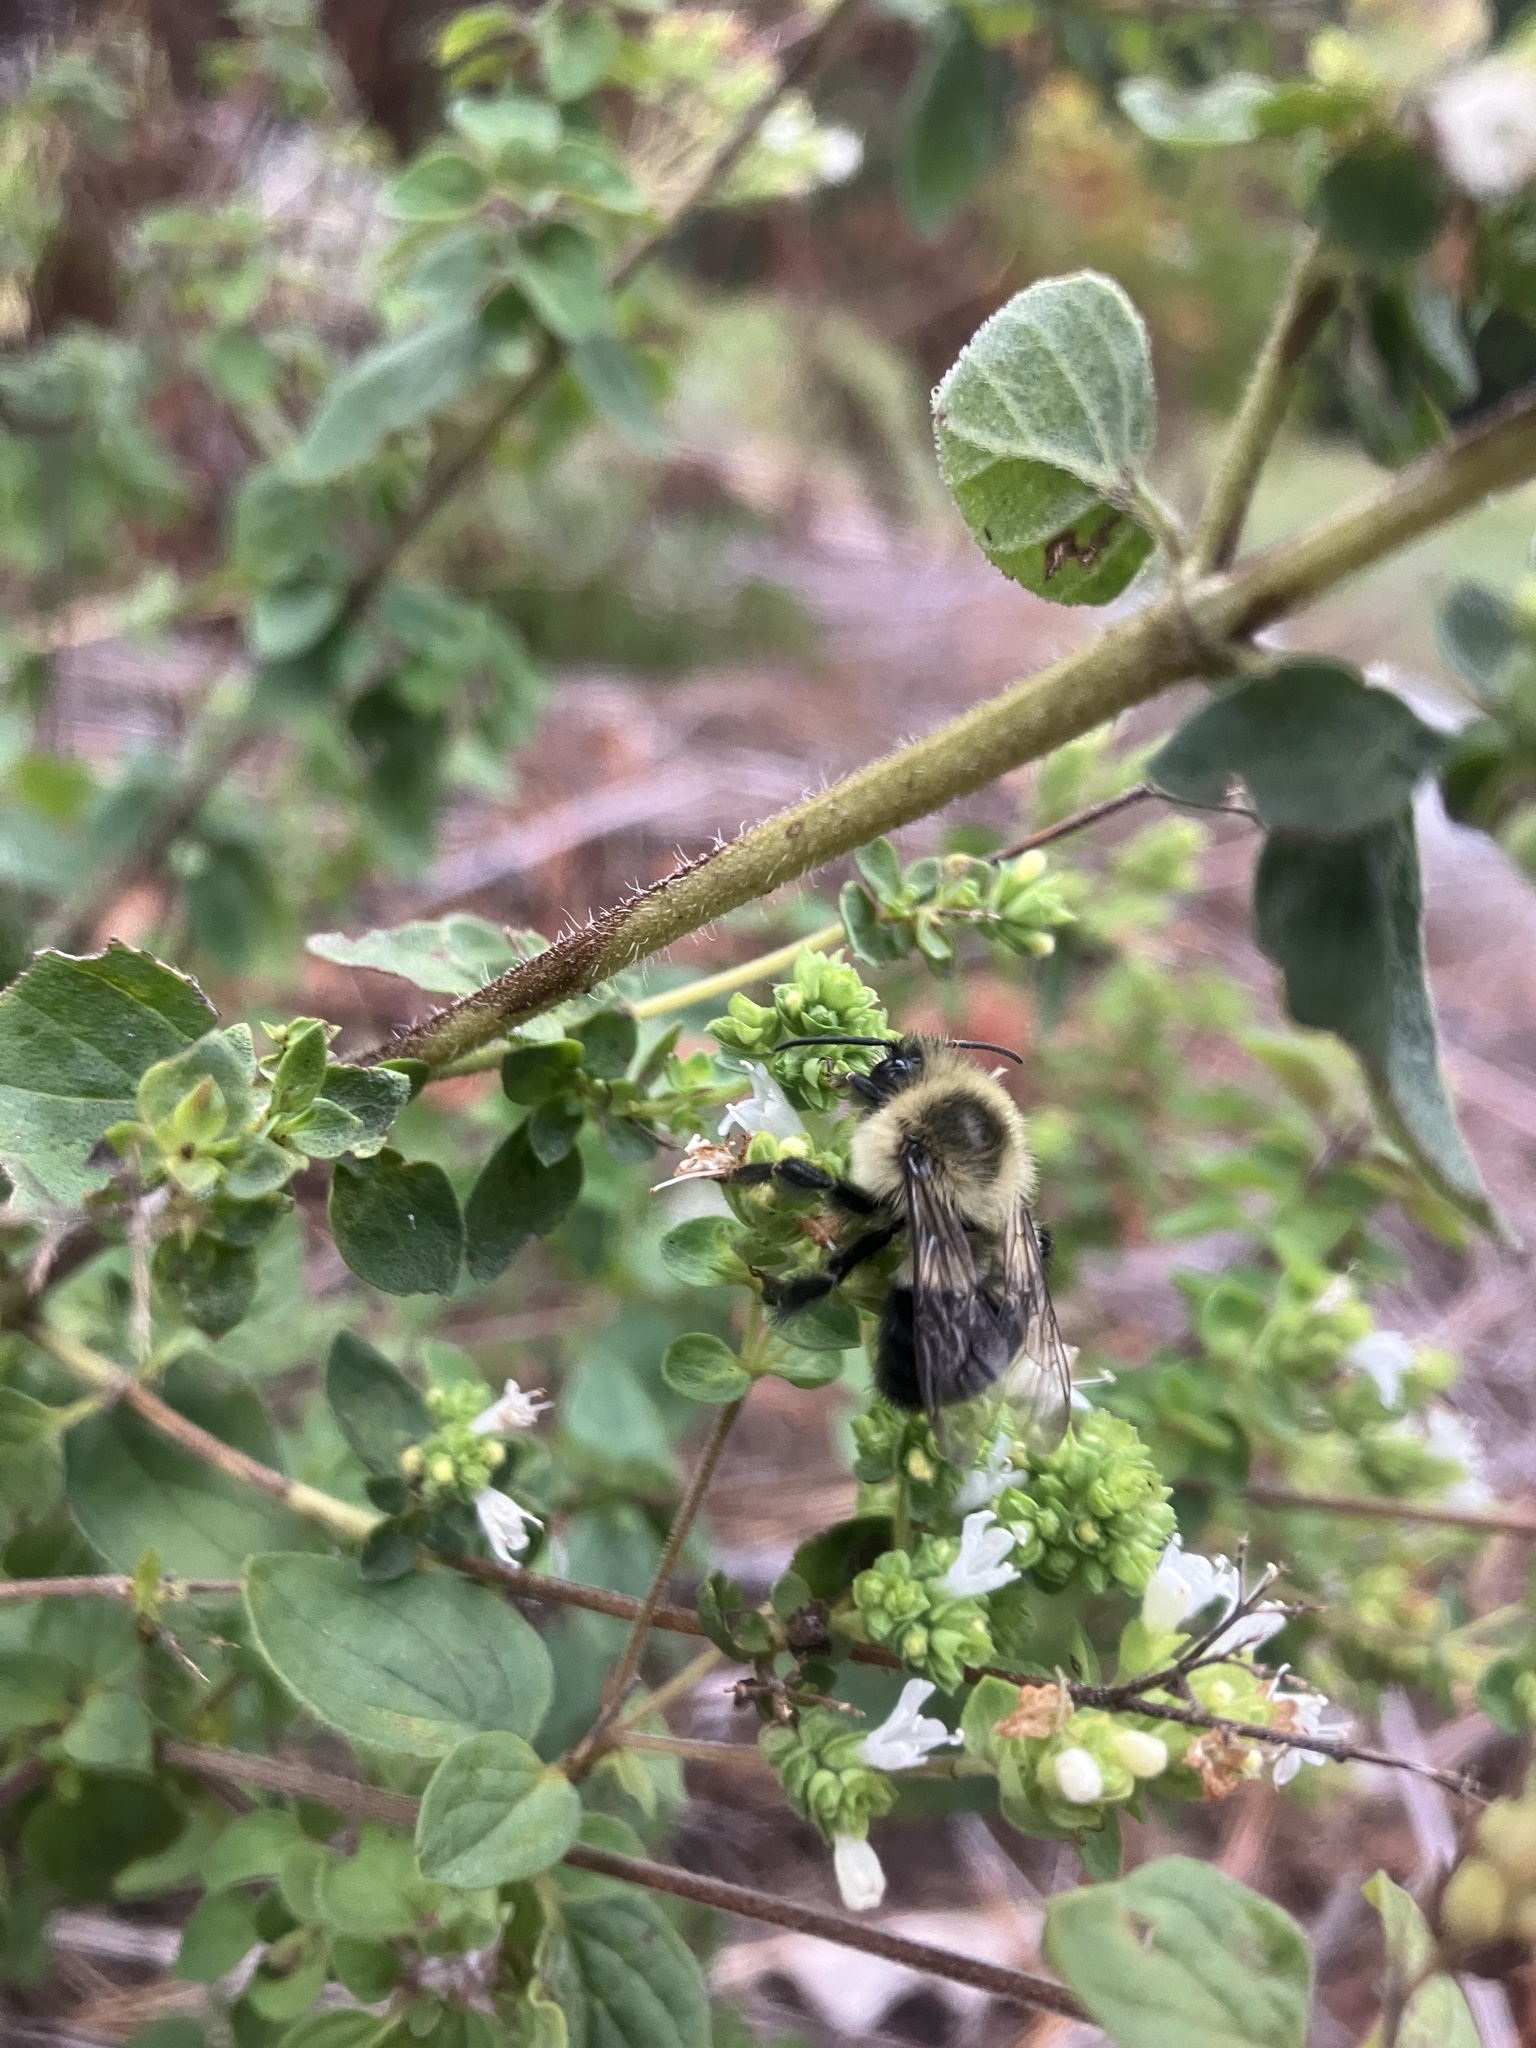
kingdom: Animalia
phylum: Arthropoda
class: Insecta
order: Hymenoptera
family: Apidae
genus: Bombus
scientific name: Bombus impatiens
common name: Common eastern bumble bee
